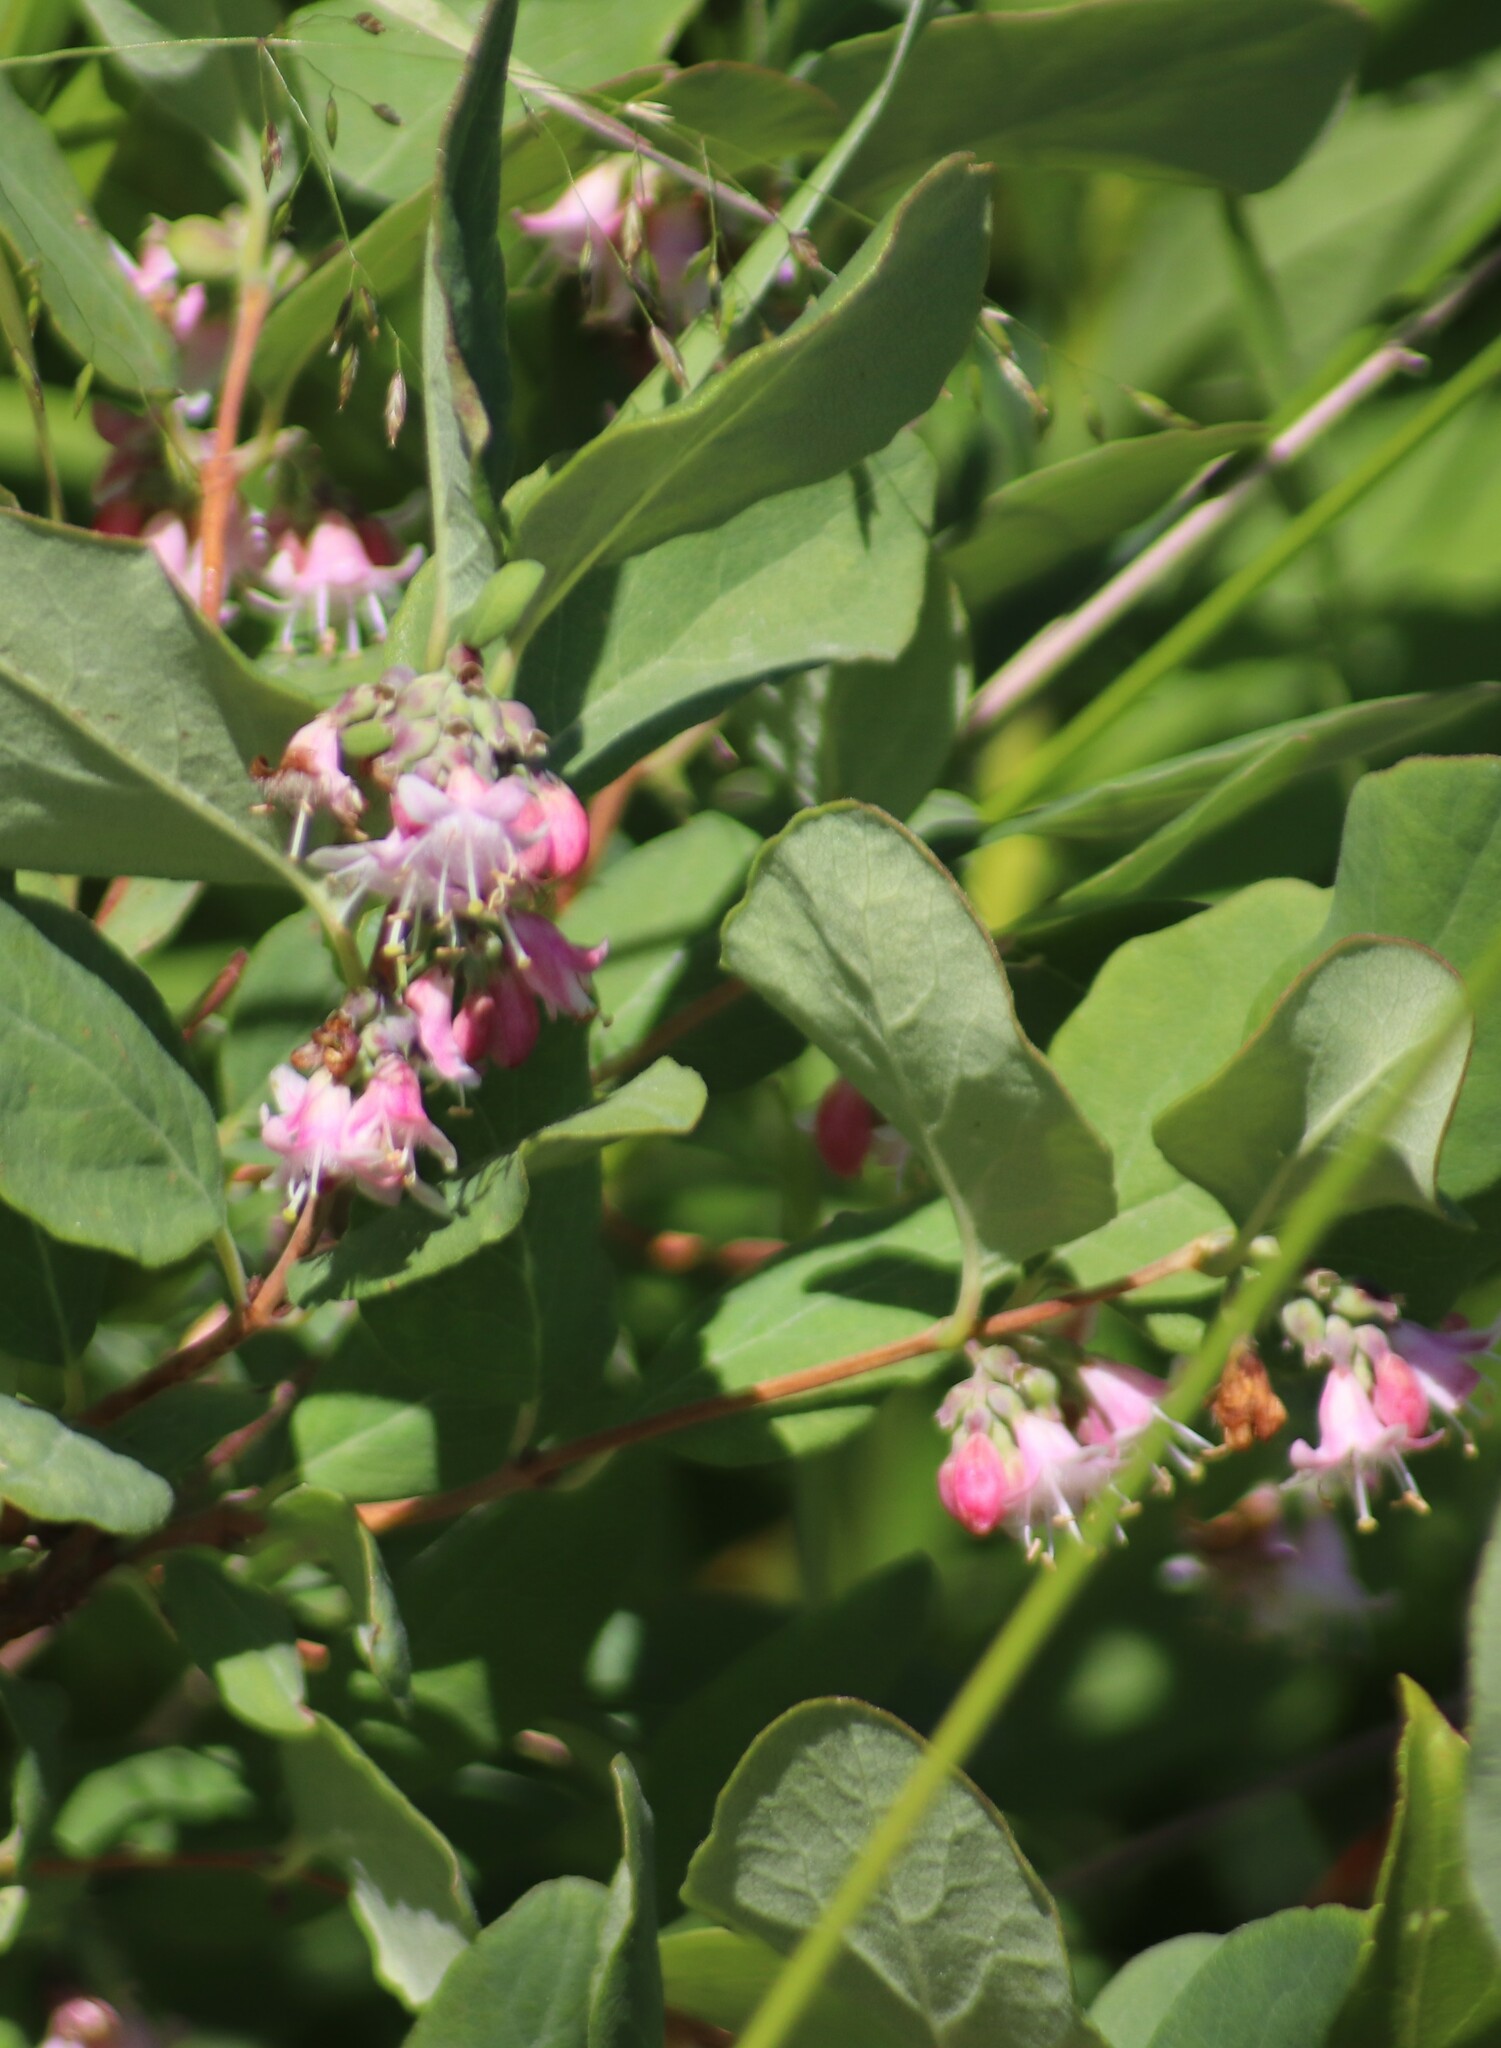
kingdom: Plantae
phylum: Tracheophyta
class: Magnoliopsida
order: Dipsacales
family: Caprifoliaceae
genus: Symphoricarpos
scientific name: Symphoricarpos occidentalis
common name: Wolfberry
